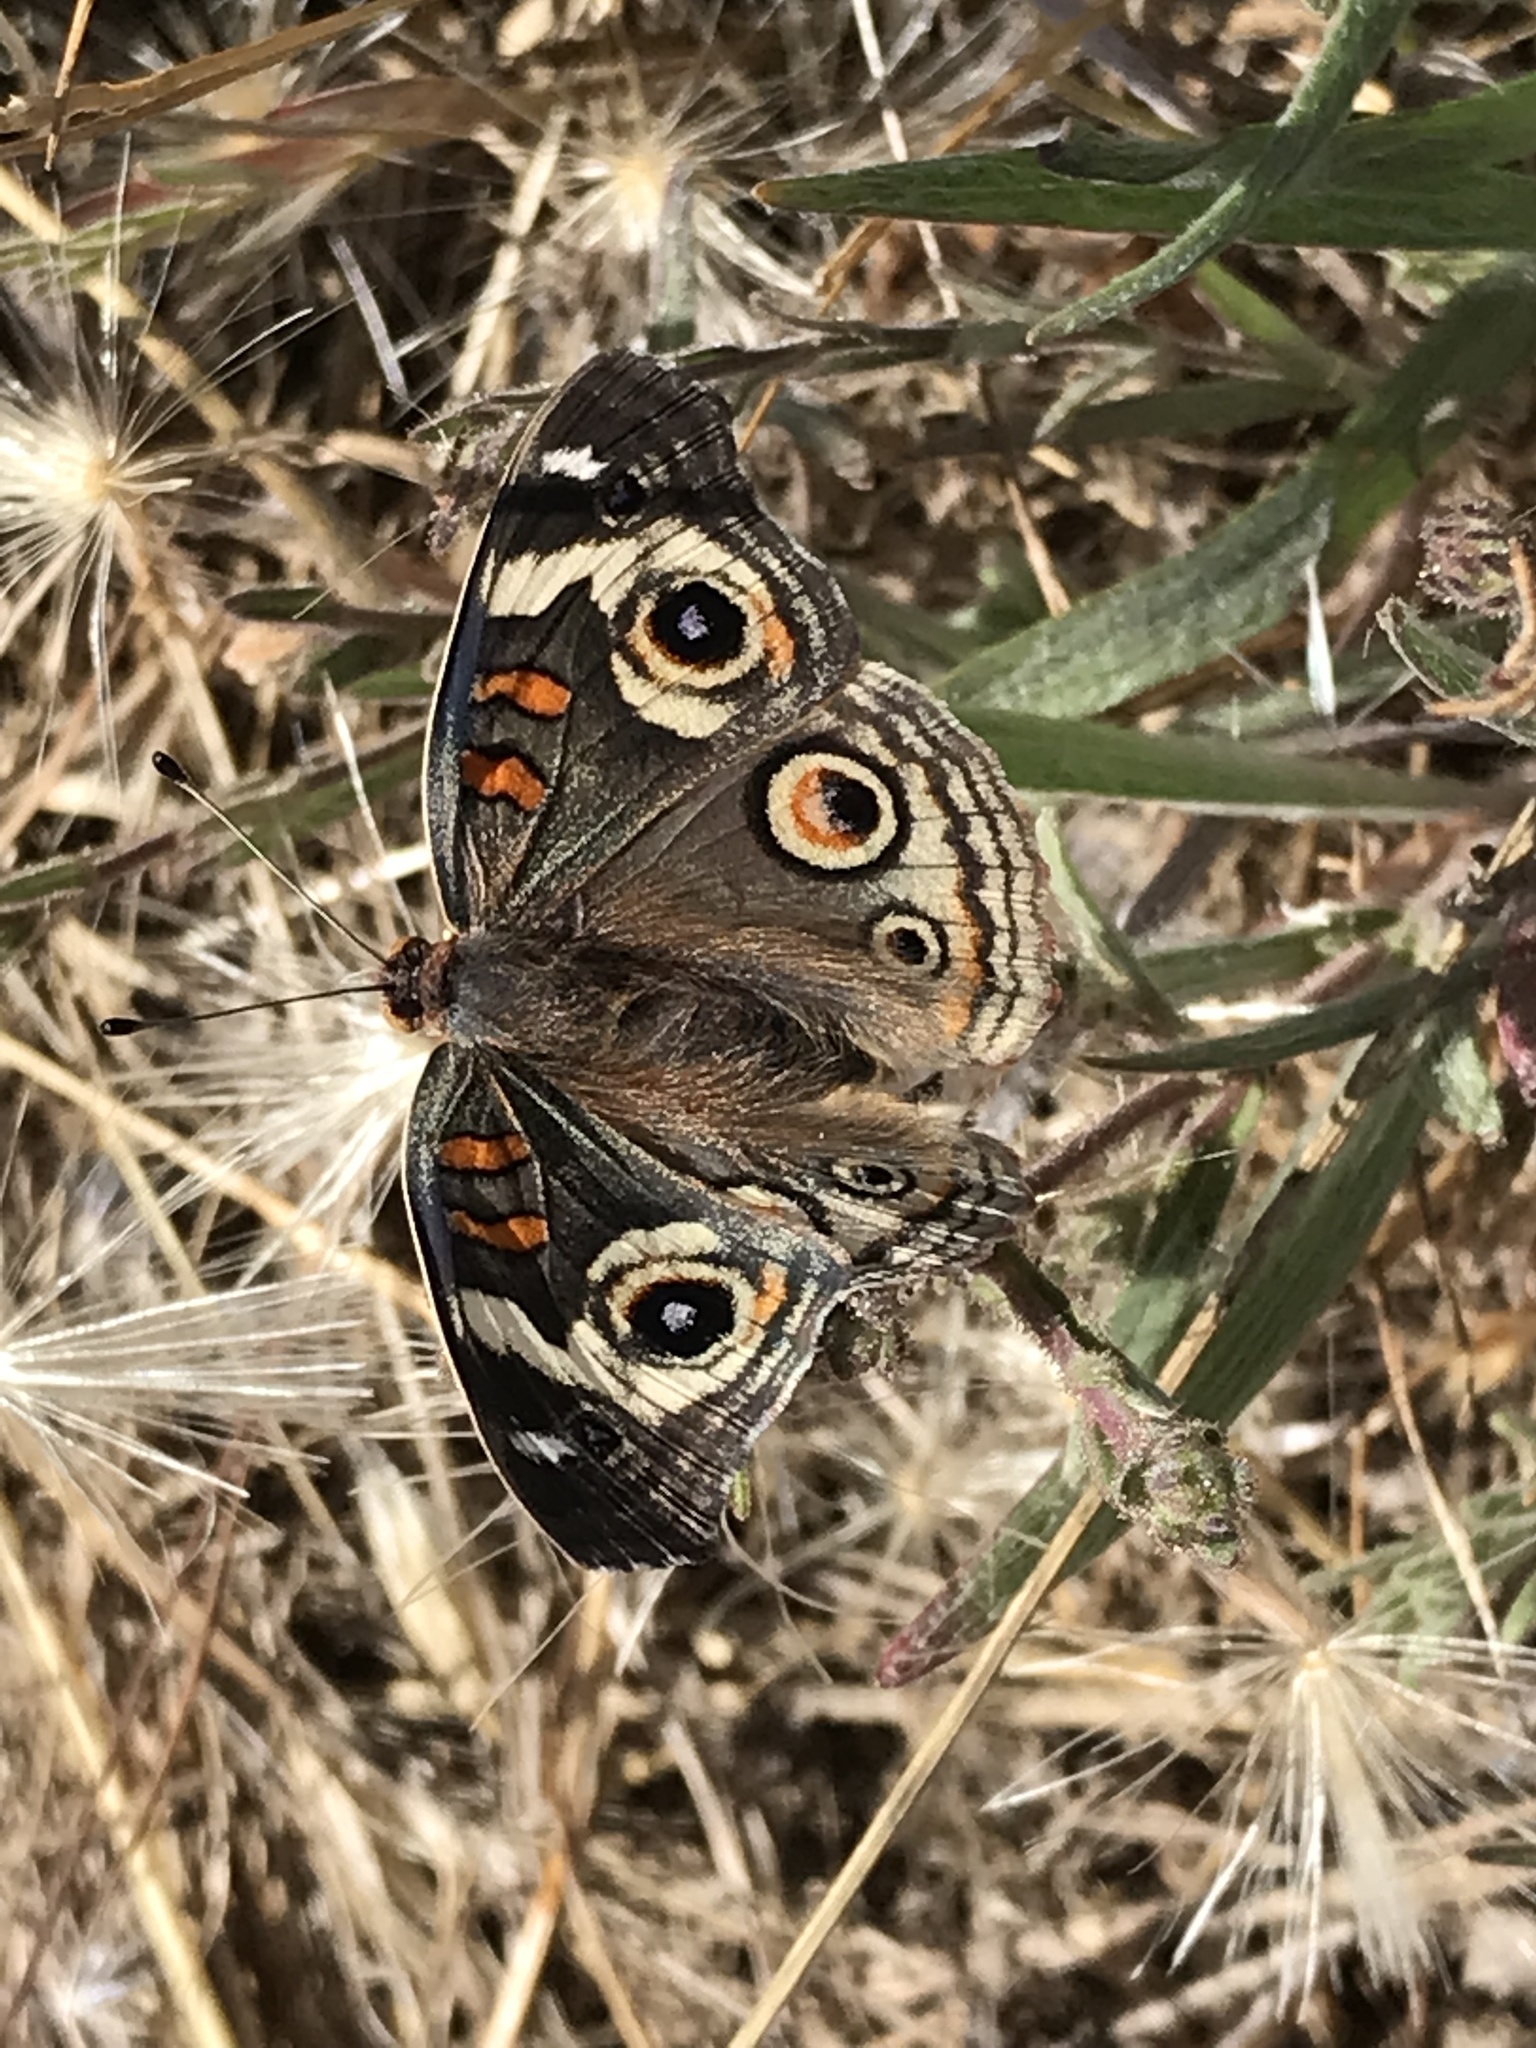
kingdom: Animalia
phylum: Arthropoda
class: Insecta
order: Lepidoptera
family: Nymphalidae
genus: Junonia
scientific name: Junonia grisea
